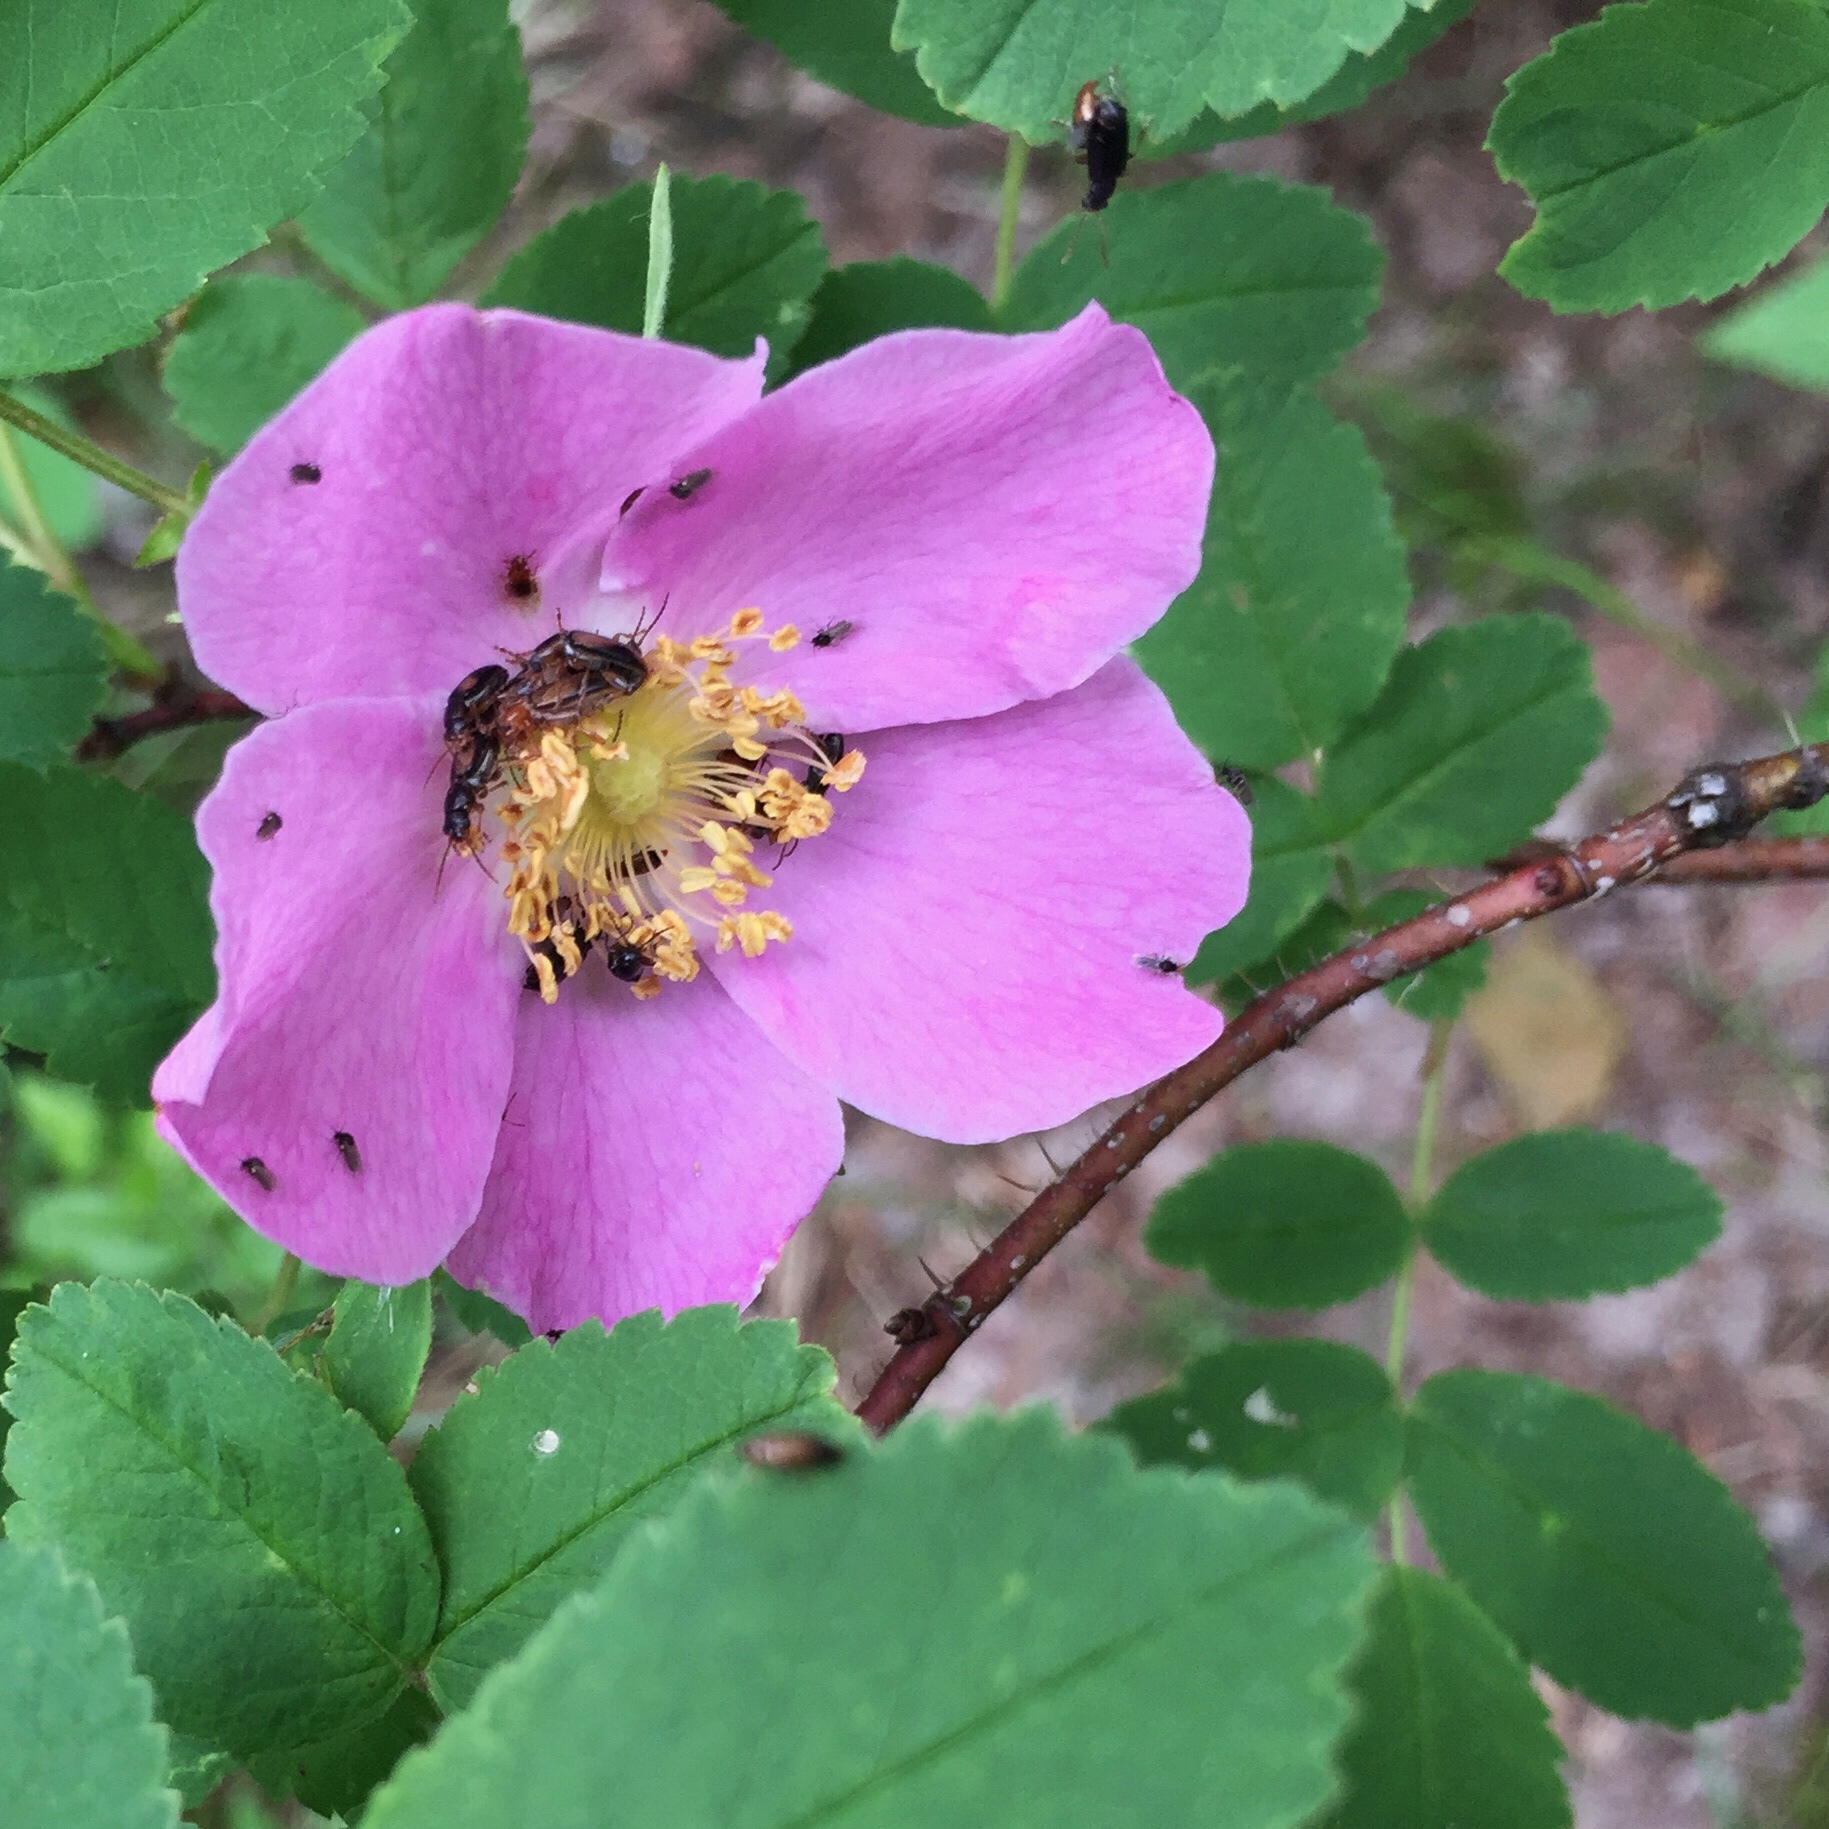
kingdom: Plantae
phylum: Tracheophyta
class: Magnoliopsida
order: Rosales
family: Rosaceae
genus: Rosa
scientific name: Rosa acicularis
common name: Prickly rose
